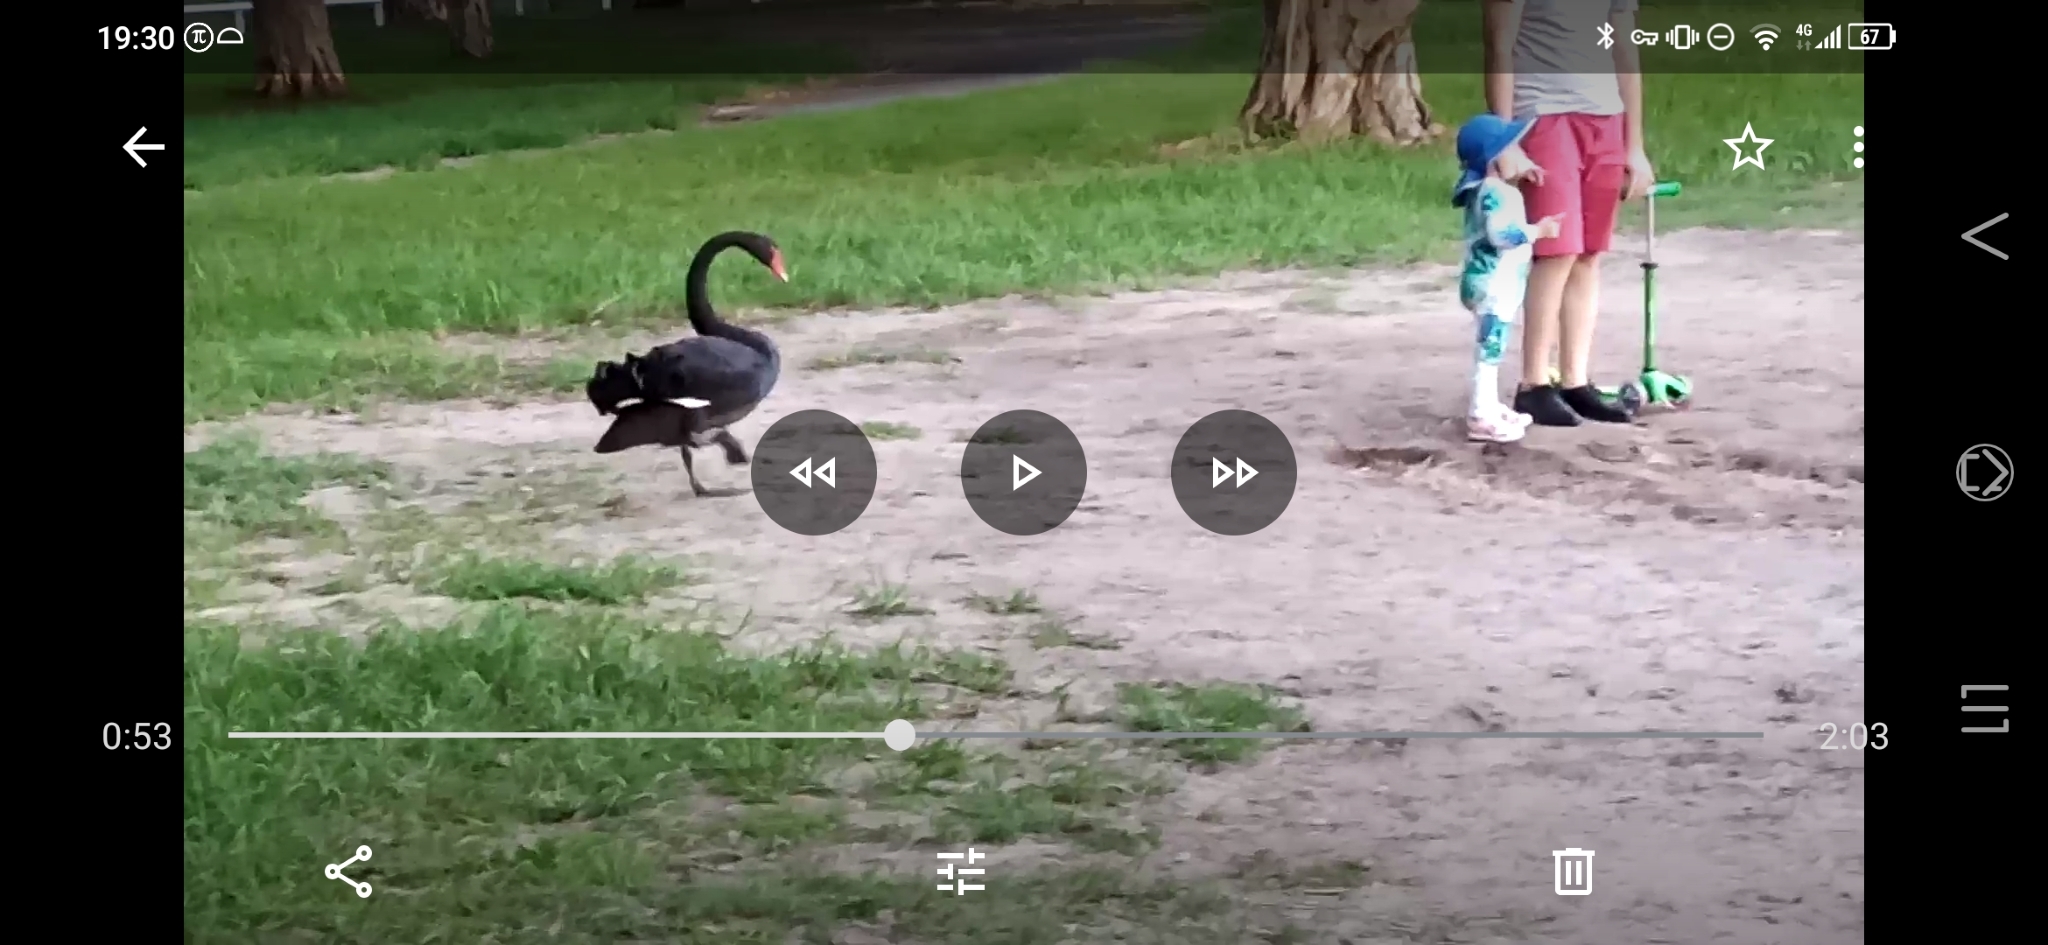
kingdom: Animalia
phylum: Chordata
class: Aves
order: Anseriformes
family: Anatidae
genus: Cygnus
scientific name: Cygnus atratus
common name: Black swan
